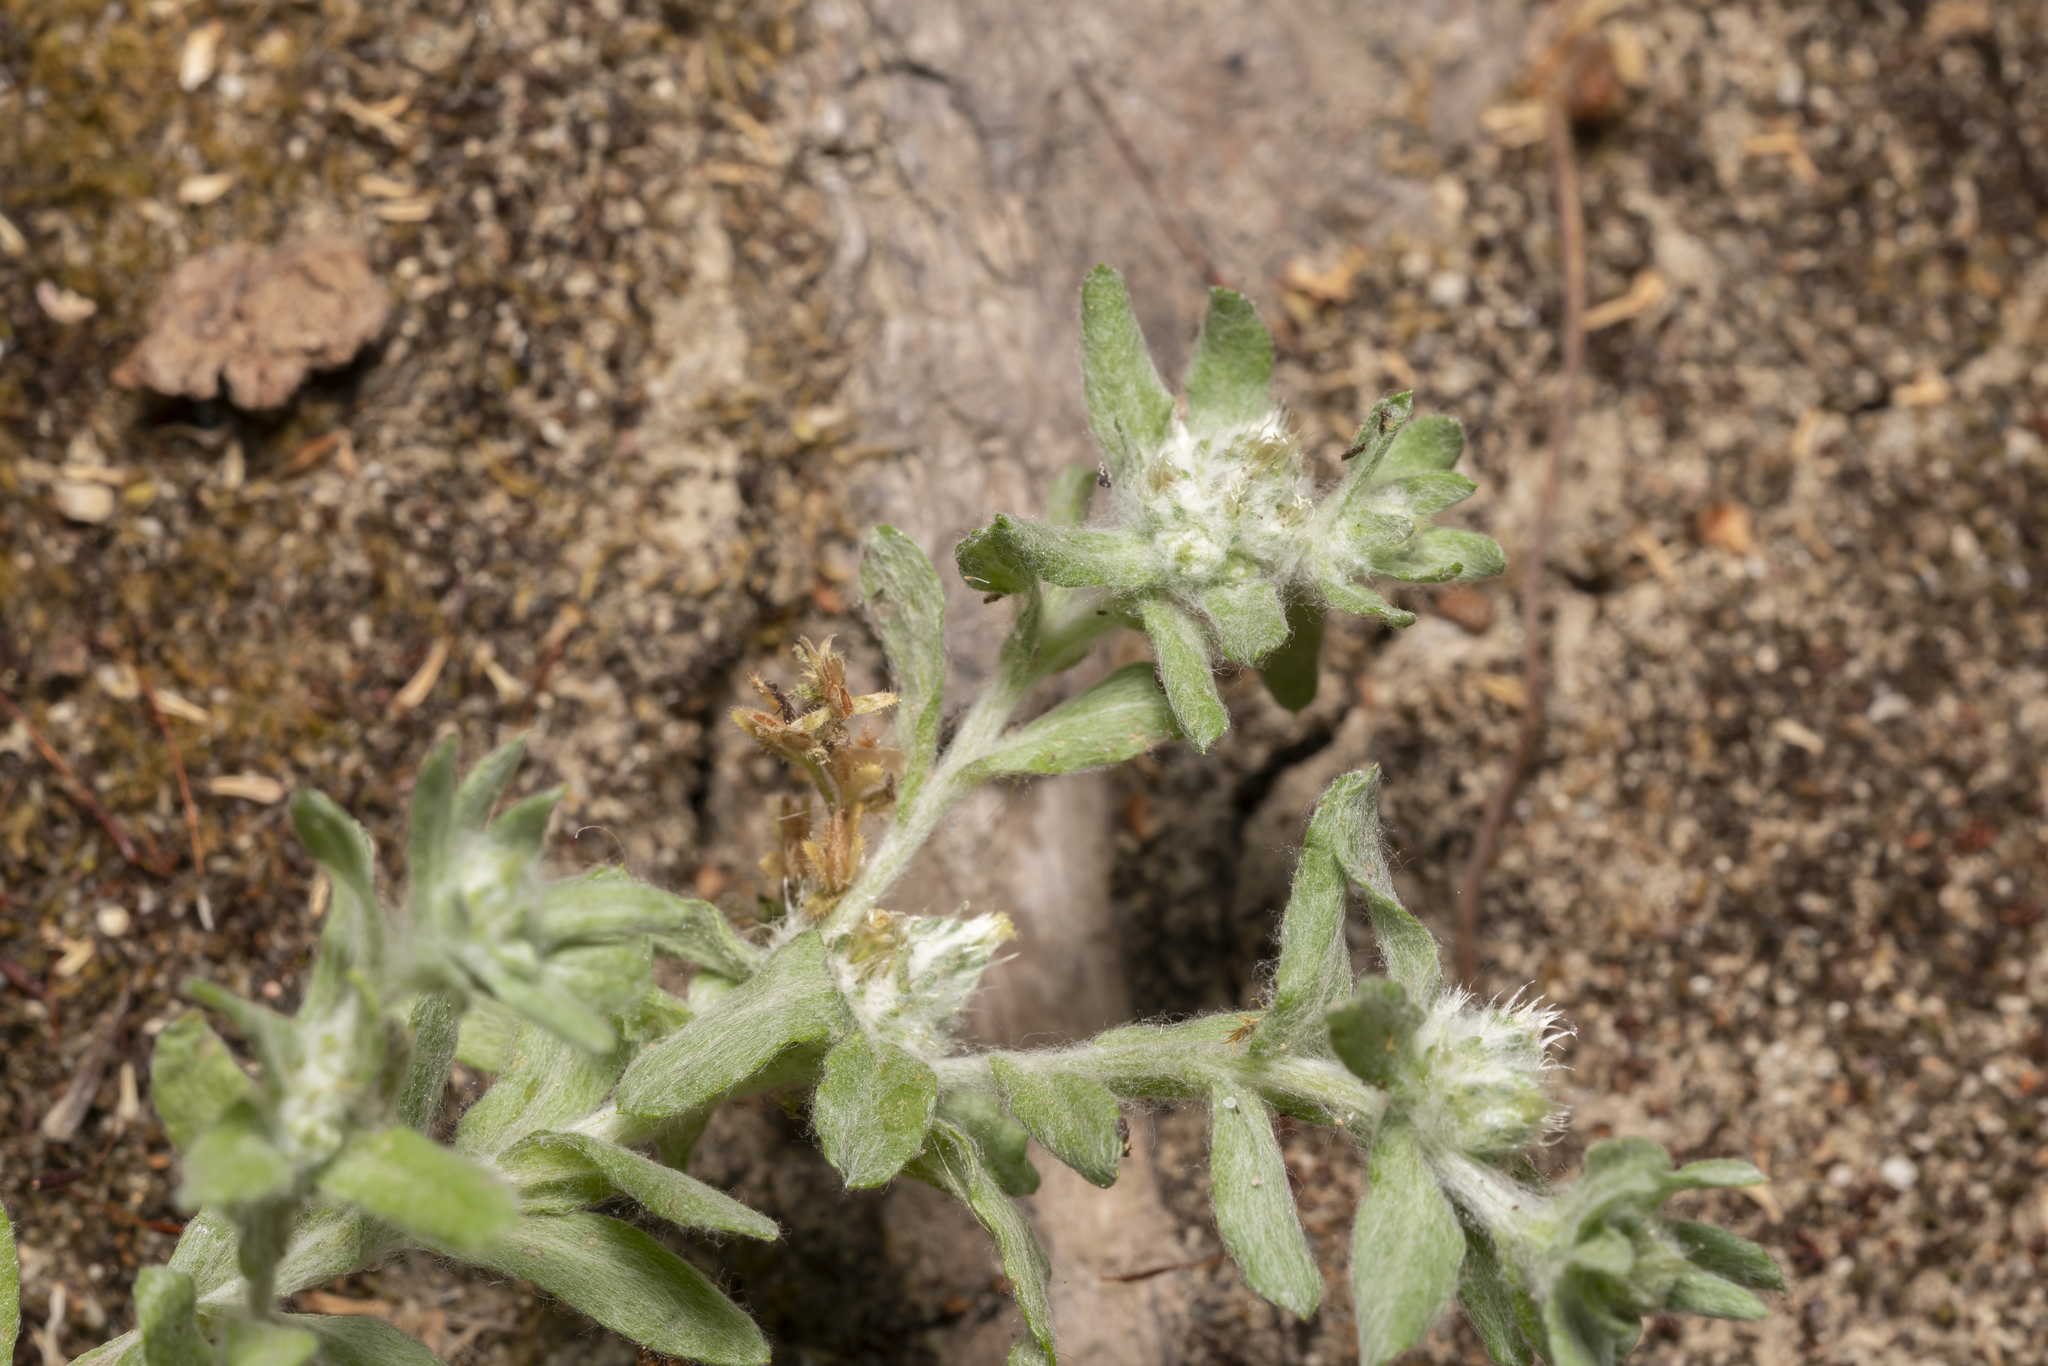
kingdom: Plantae
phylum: Tracheophyta
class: Magnoliopsida
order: Asterales
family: Asteraceae
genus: Filago
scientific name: Filago pyramidata
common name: Broad-leaved cudweed
